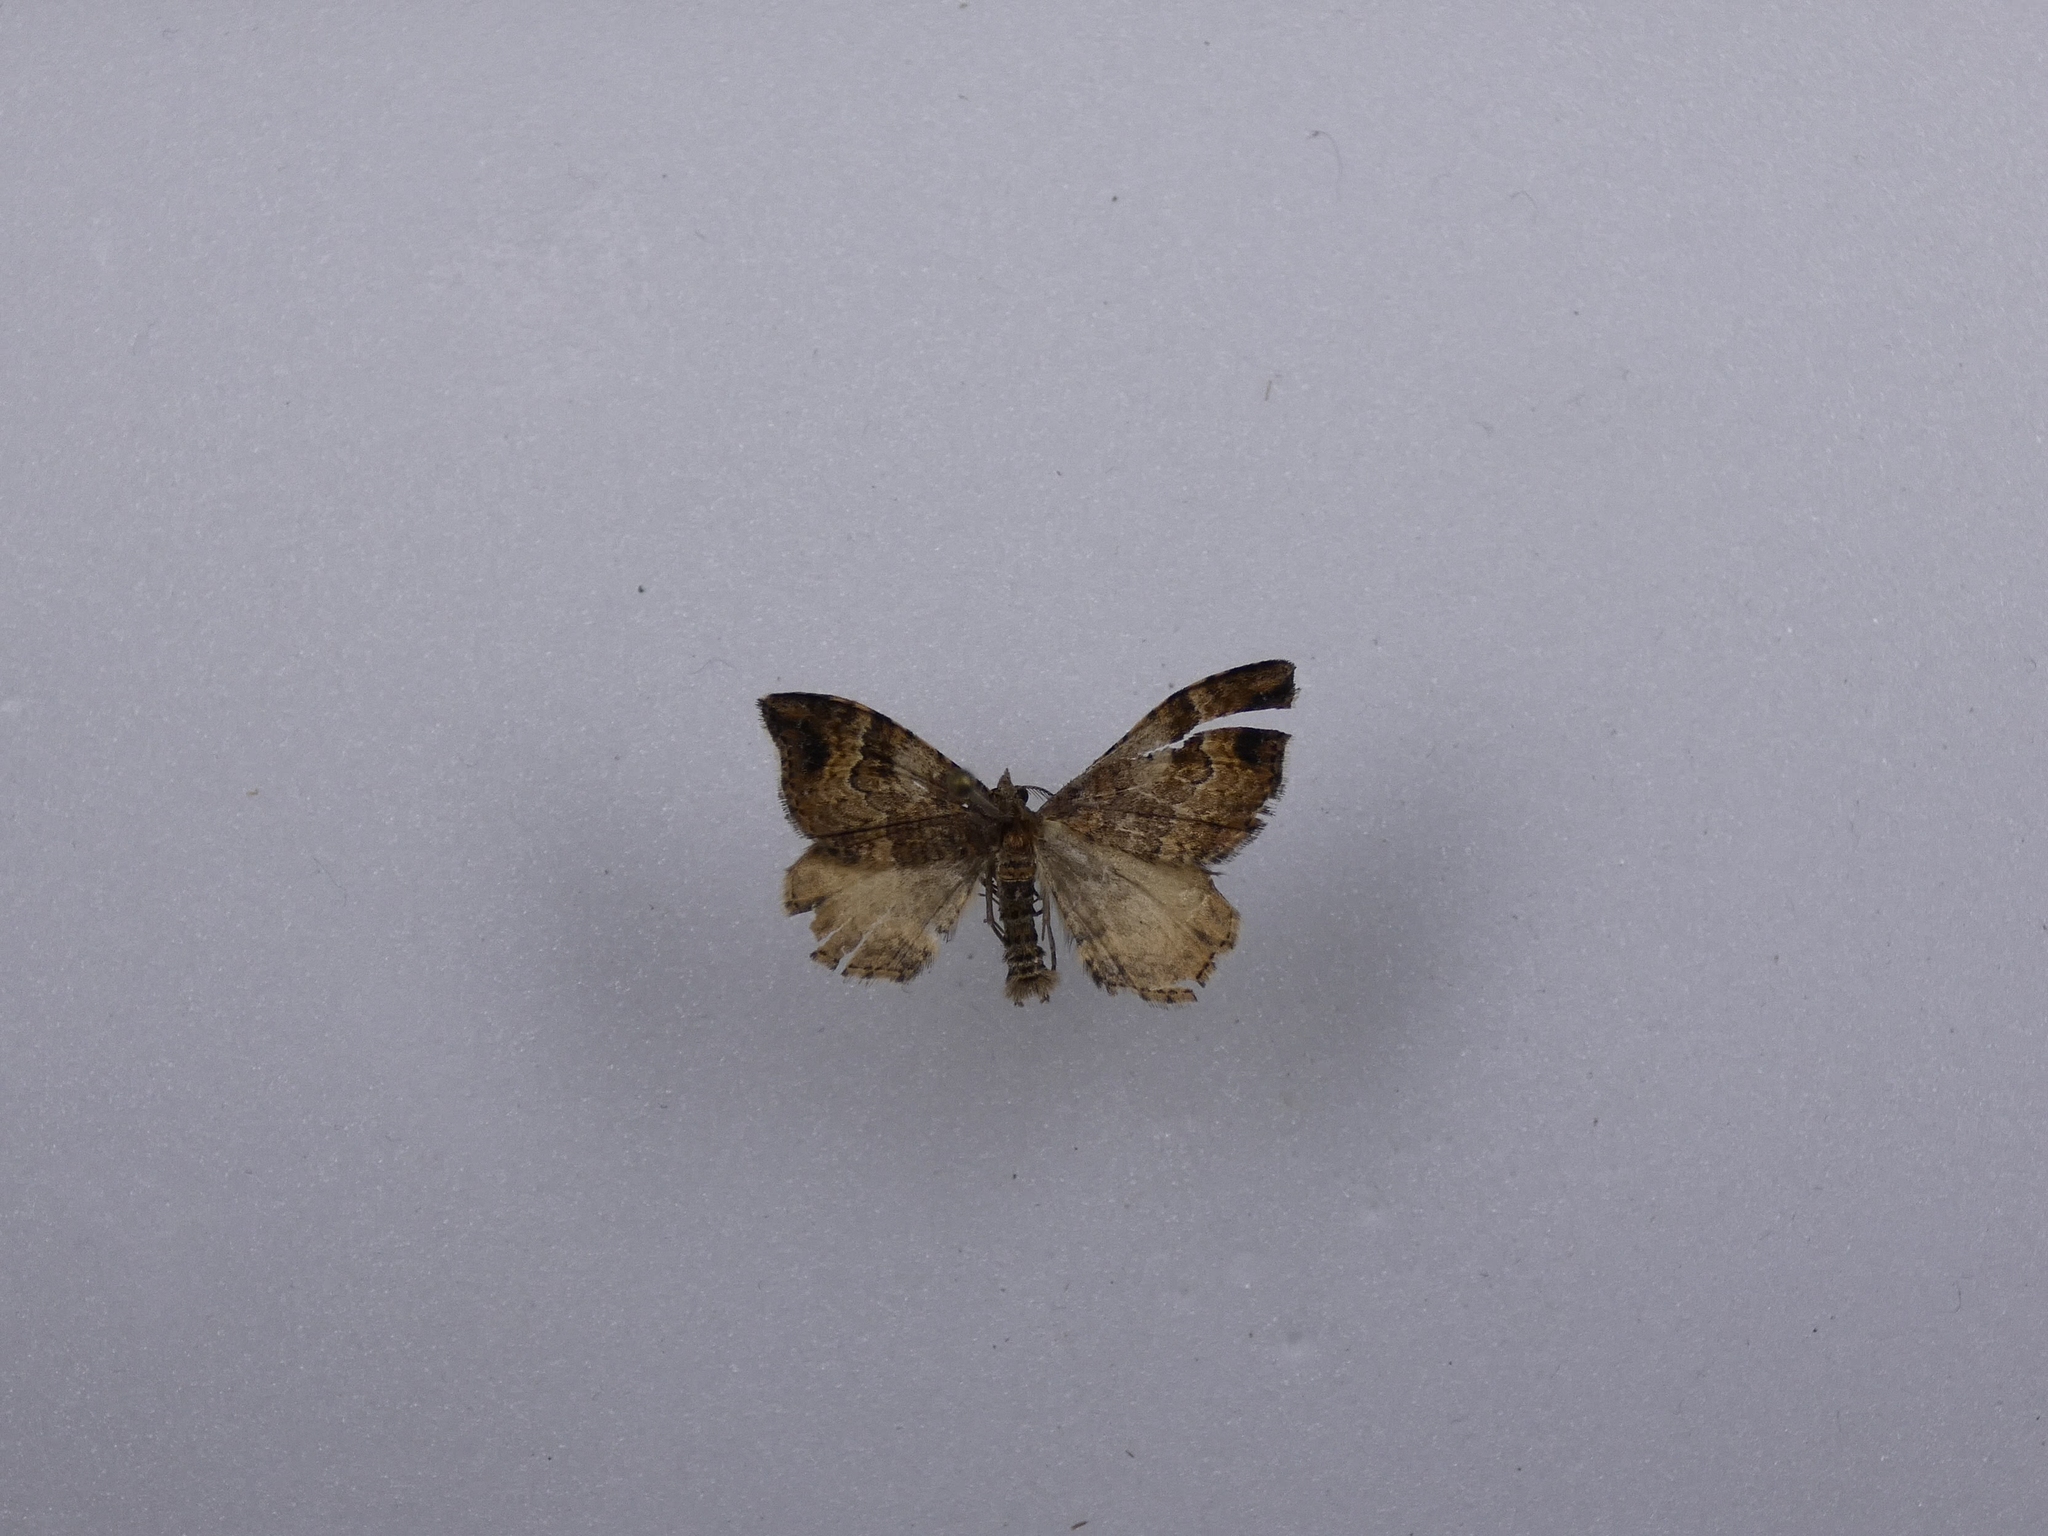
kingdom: Animalia
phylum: Arthropoda
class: Insecta
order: Lepidoptera
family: Geometridae
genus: Homodotis
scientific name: Homodotis megaspilata
